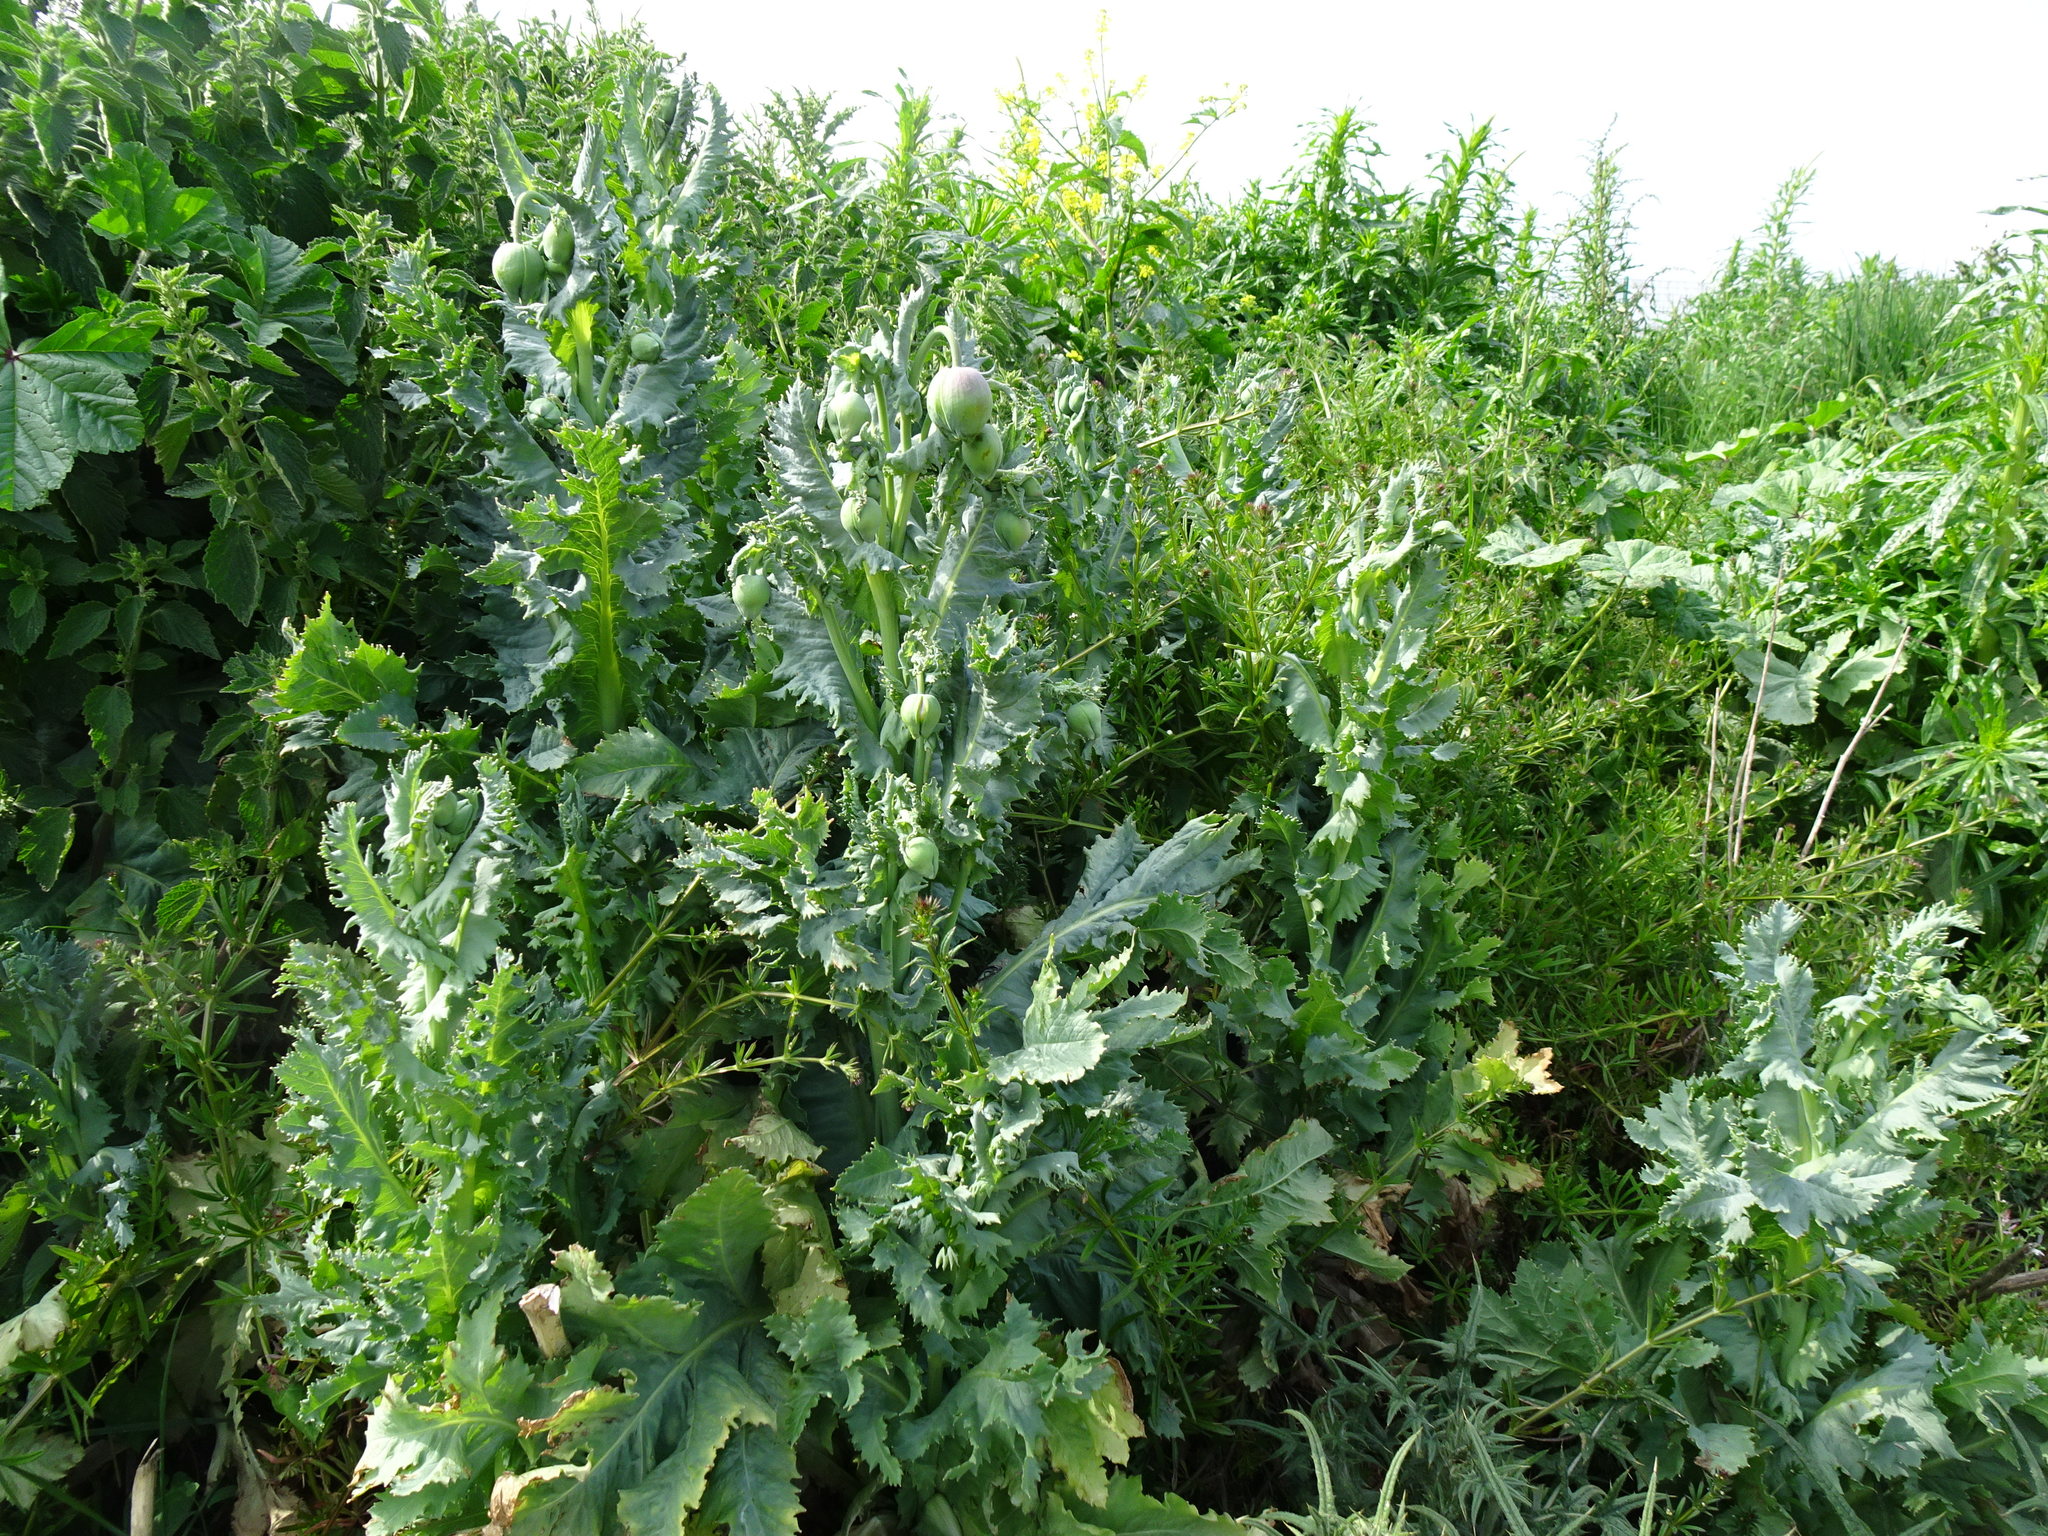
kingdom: Plantae
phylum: Tracheophyta
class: Magnoliopsida
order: Ranunculales
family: Papaveraceae
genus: Papaver
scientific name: Papaver somniferum
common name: Opium poppy
